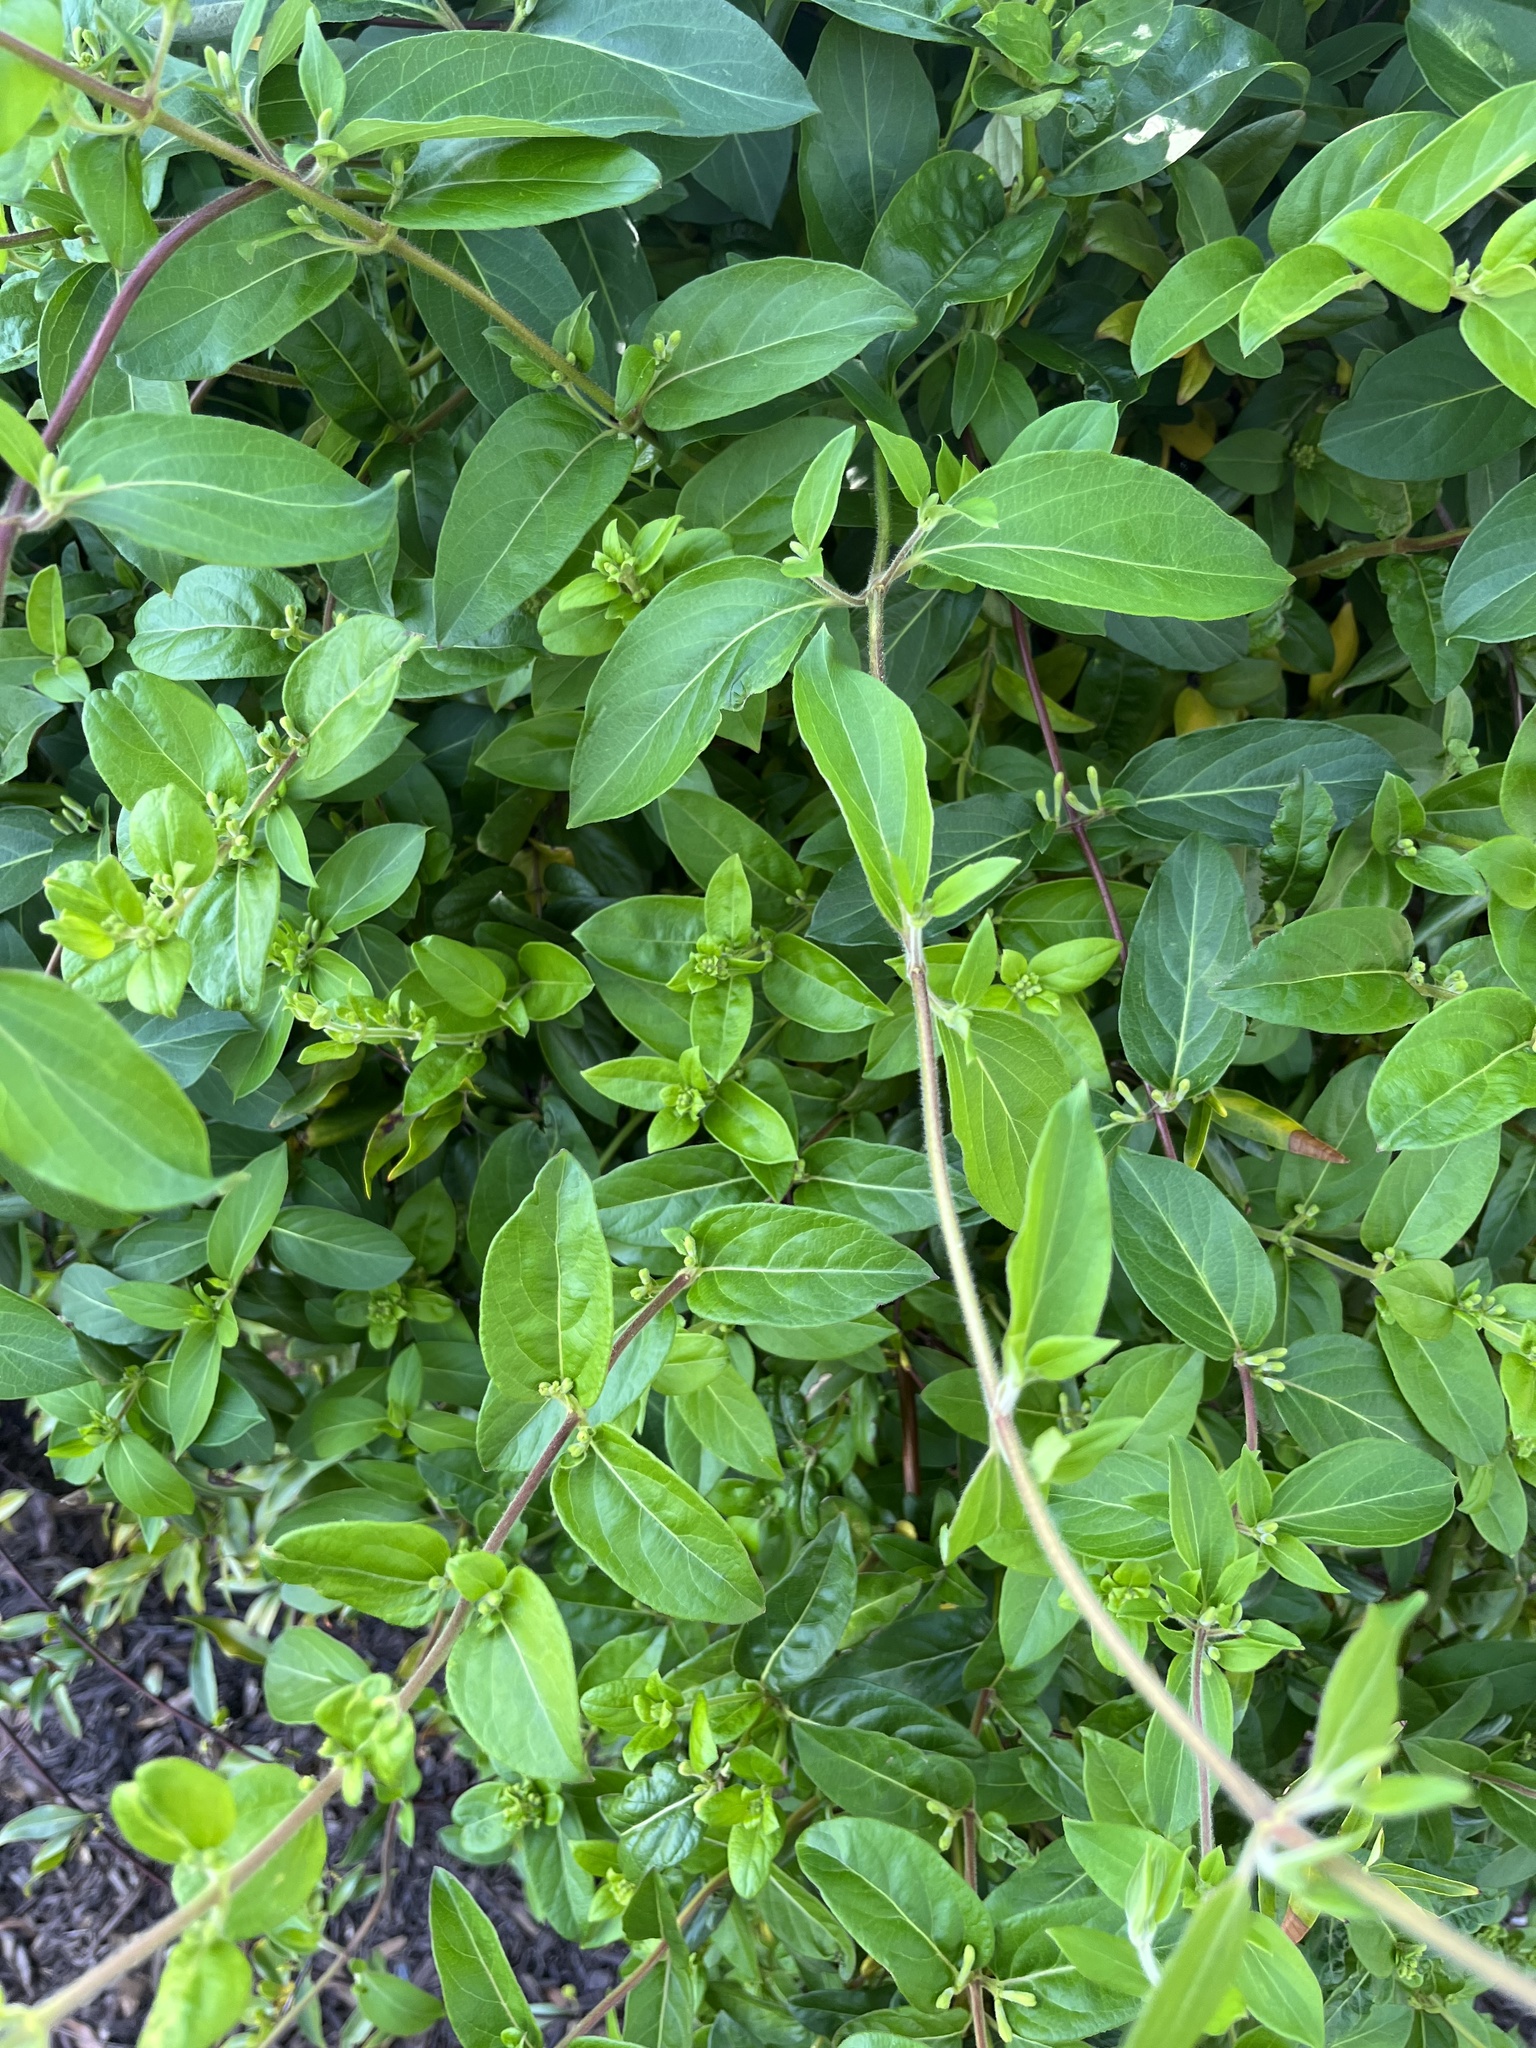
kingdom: Plantae
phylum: Tracheophyta
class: Magnoliopsida
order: Dipsacales
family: Caprifoliaceae
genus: Lonicera
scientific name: Lonicera japonica
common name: Japanese honeysuckle
